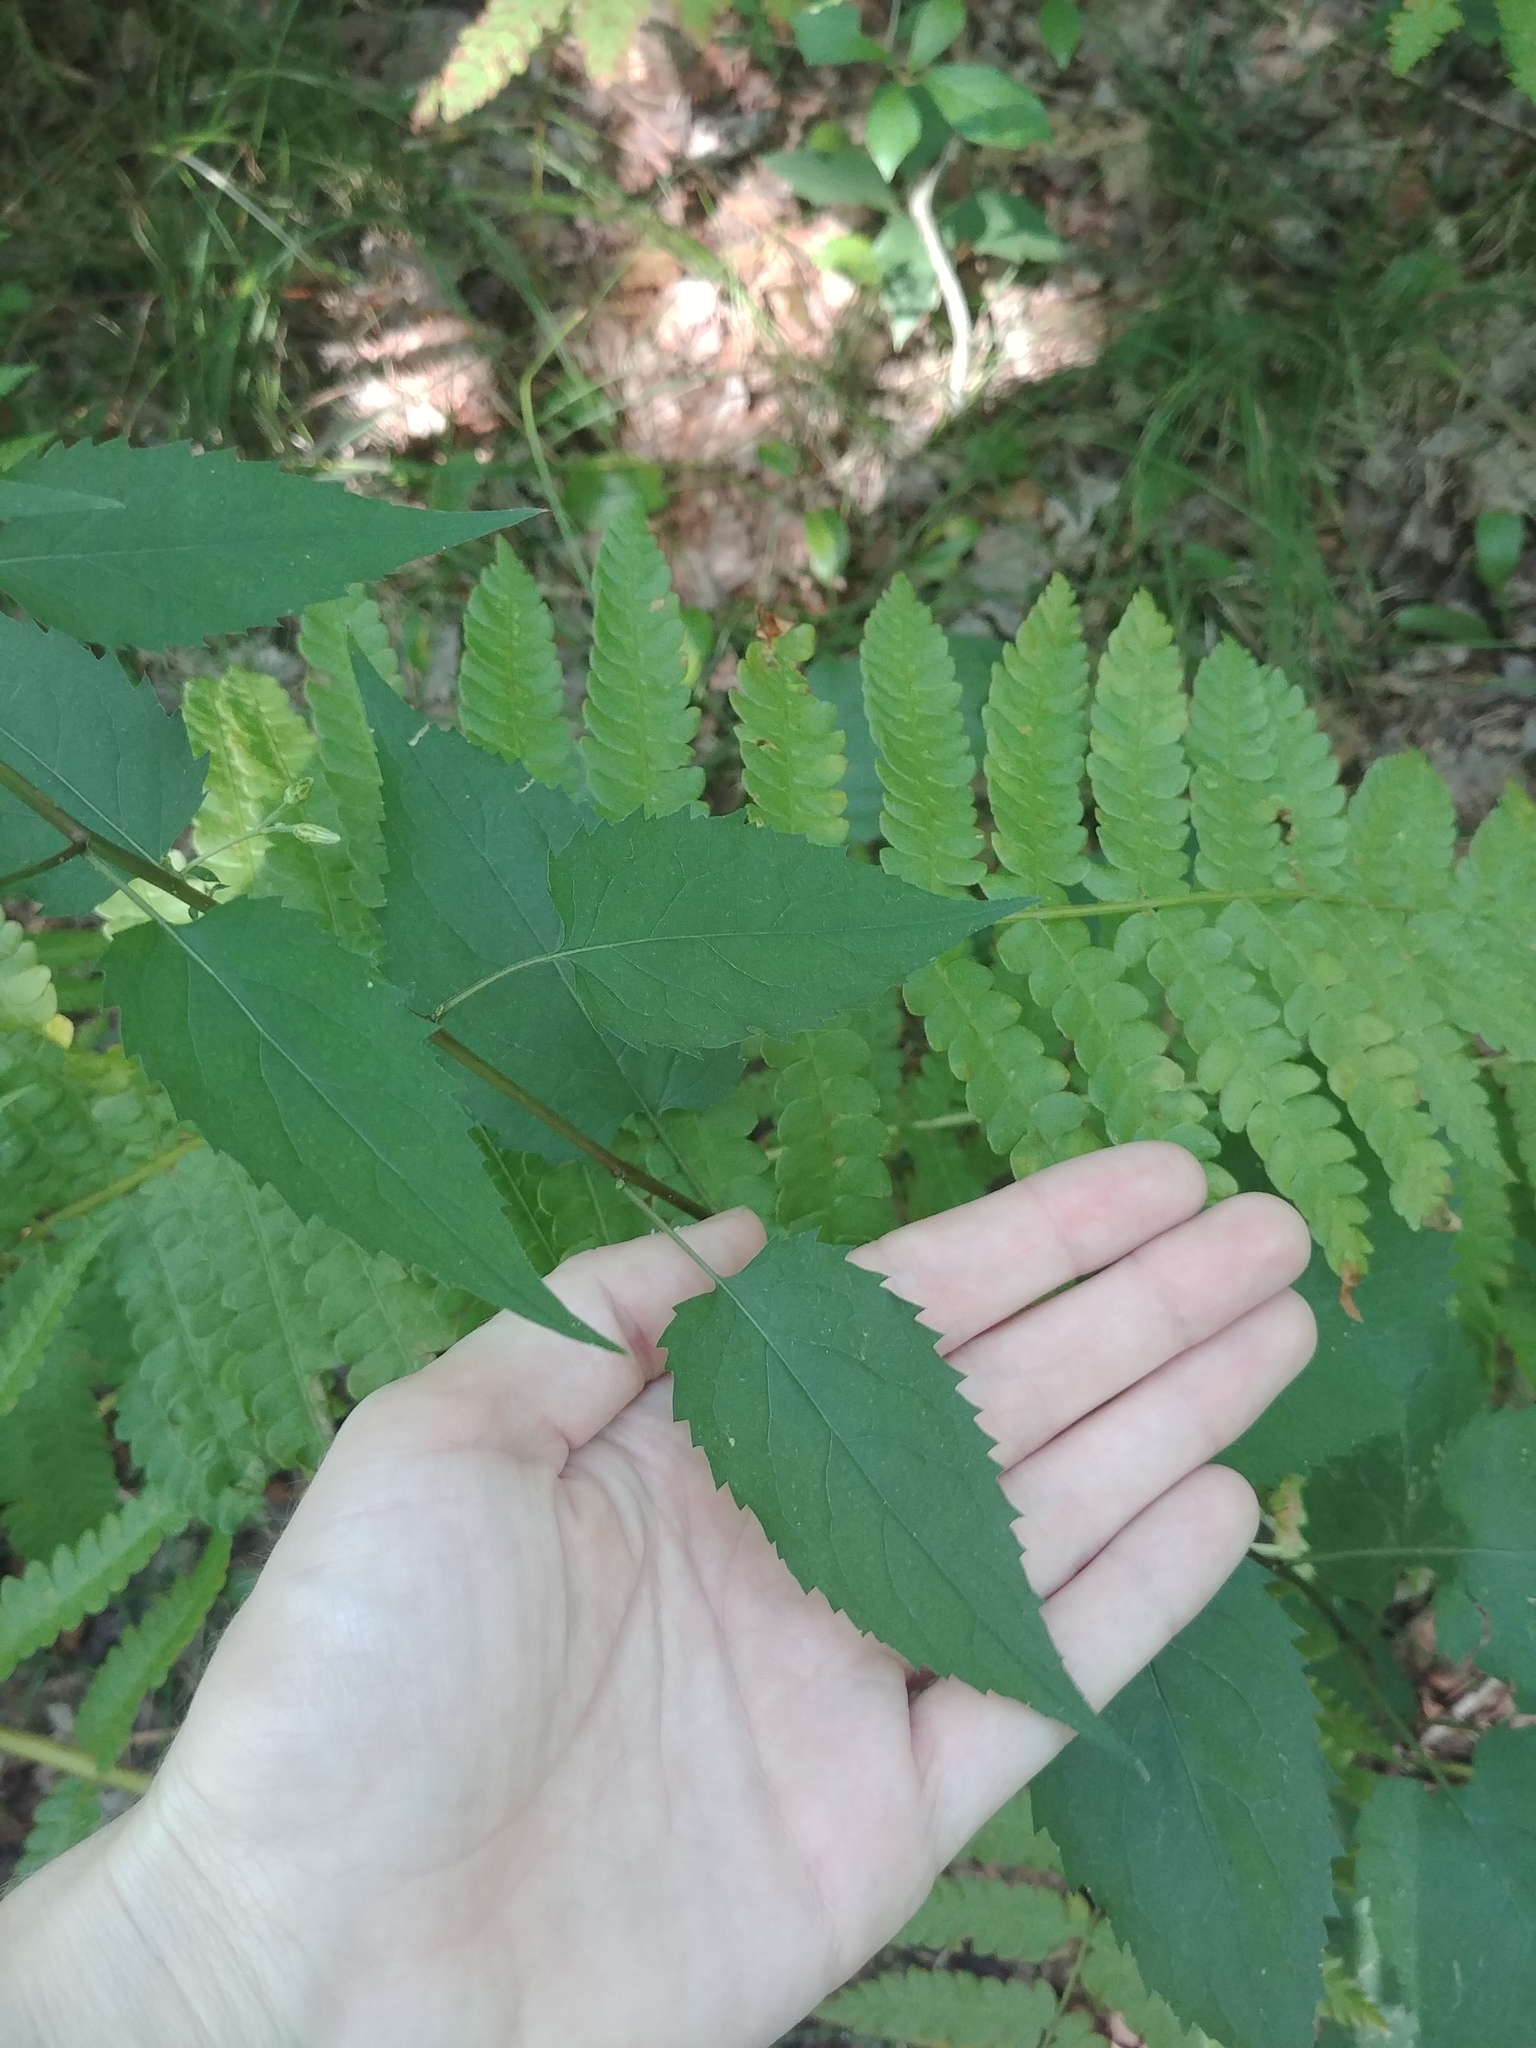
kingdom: Plantae
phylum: Tracheophyta
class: Magnoliopsida
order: Asterales
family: Asteraceae
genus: Eurybia
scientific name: Eurybia divaricata
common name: White wood aster
